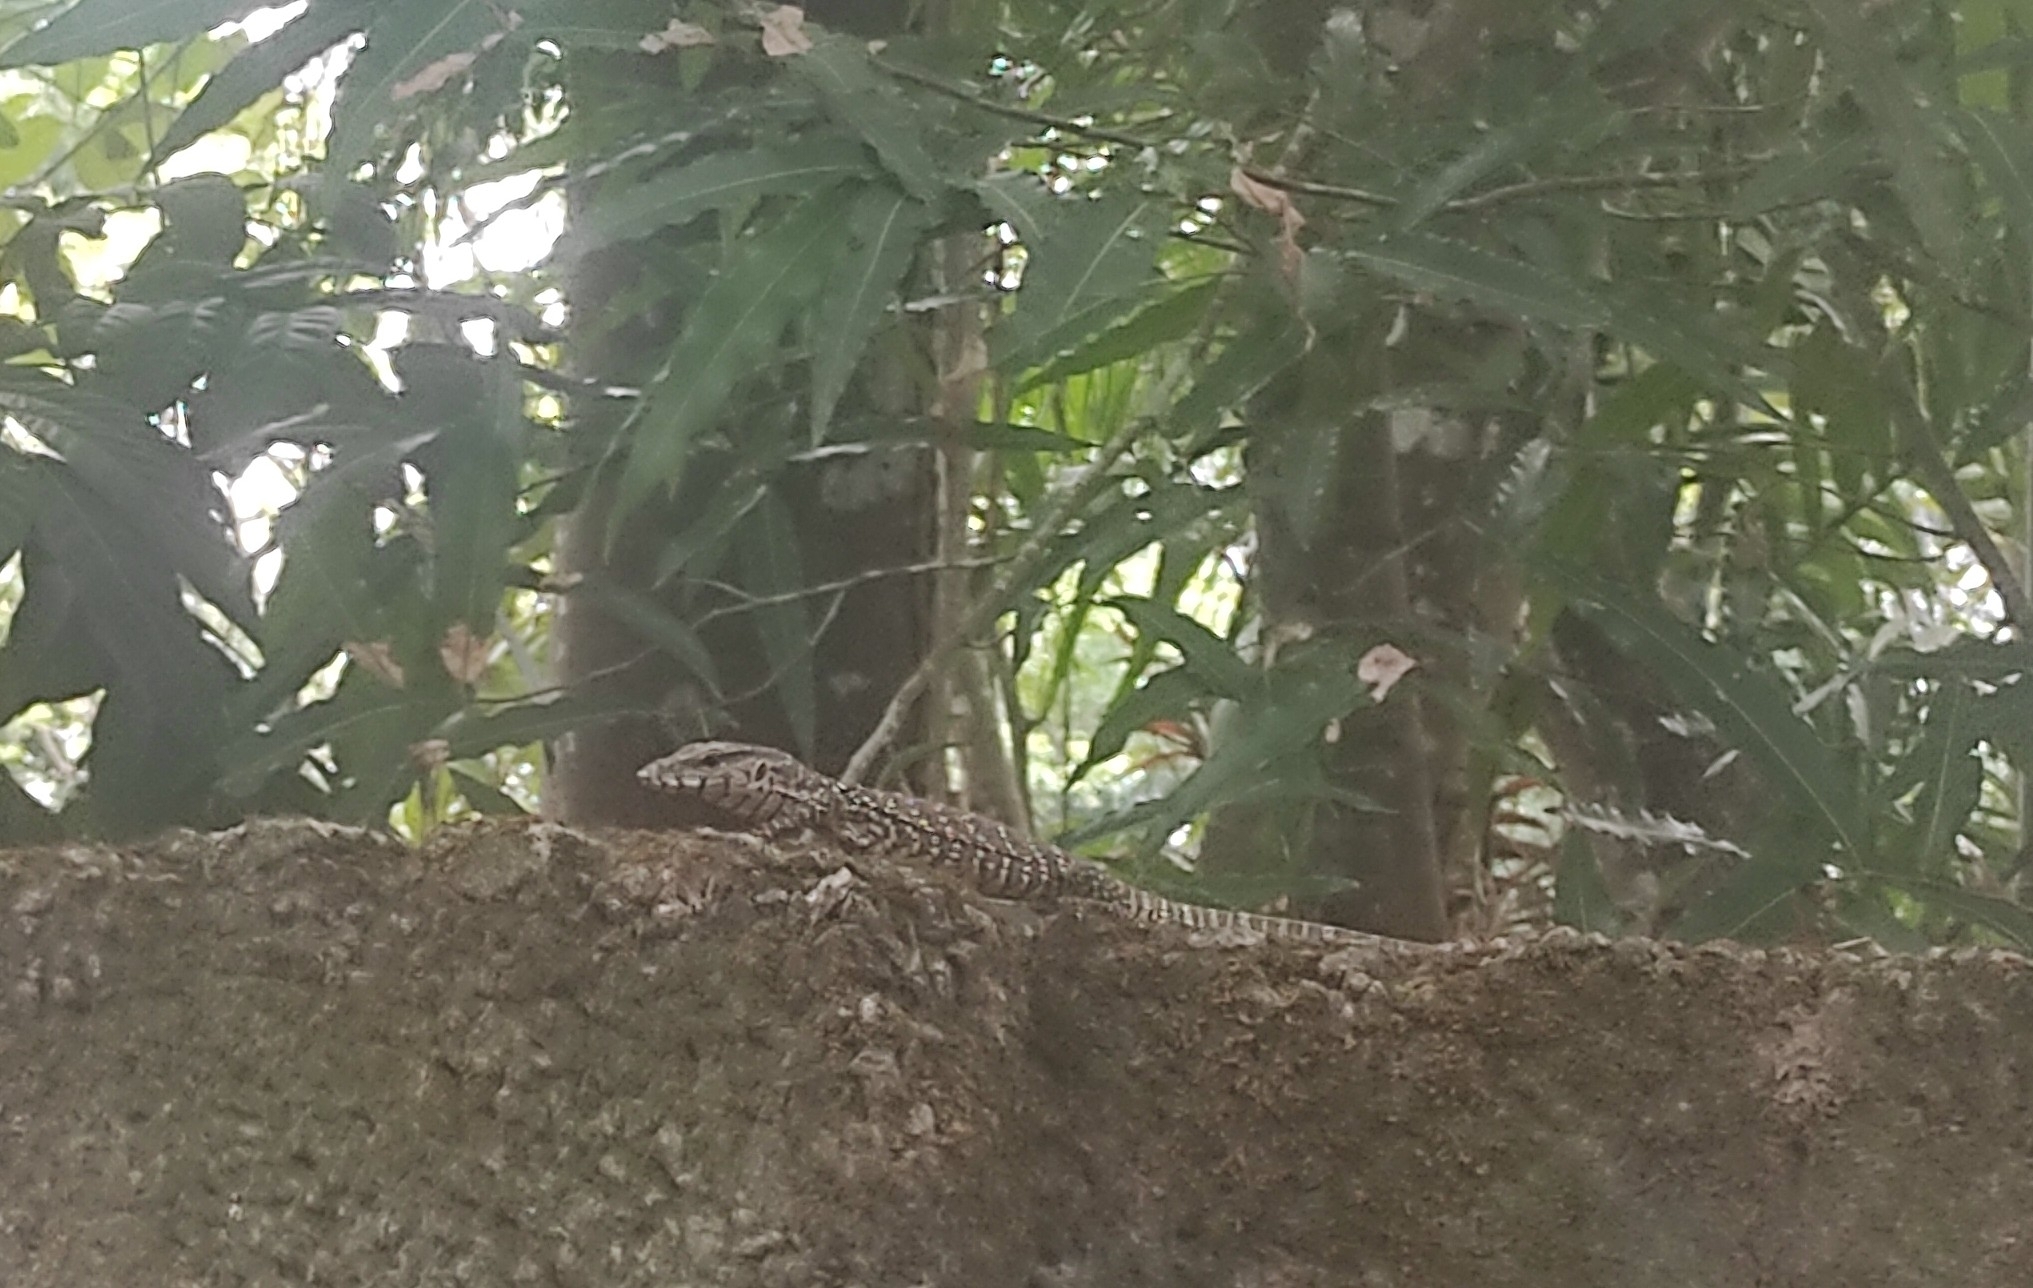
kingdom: Animalia
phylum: Chordata
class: Squamata
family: Varanidae
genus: Varanus
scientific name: Varanus bengalensis
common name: Bengal monitor
